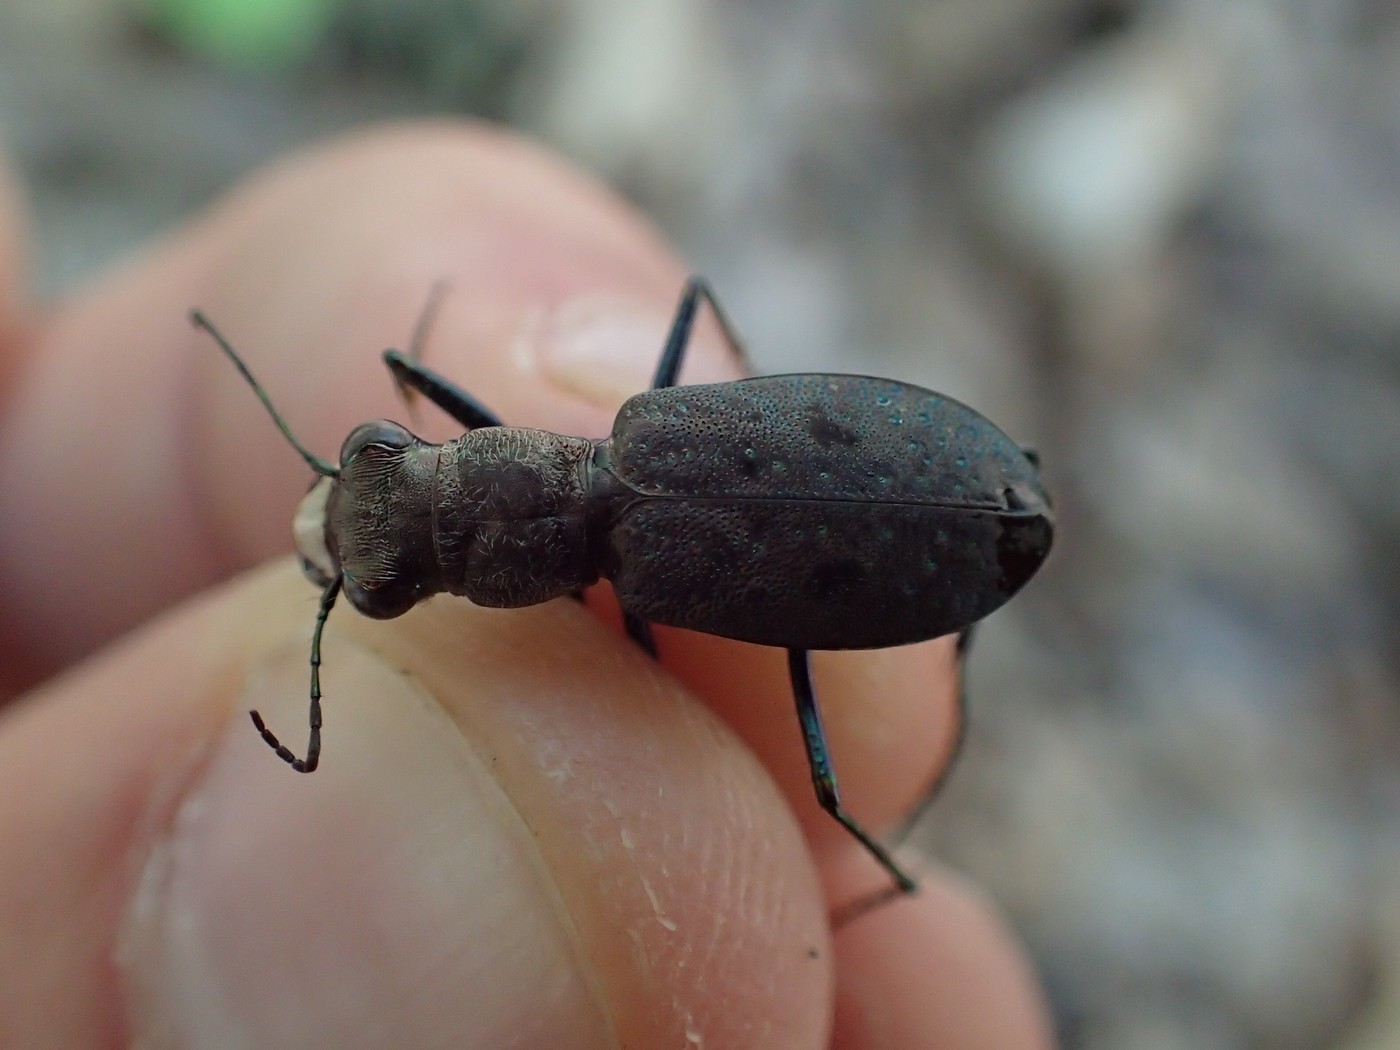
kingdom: Animalia
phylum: Arthropoda
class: Insecta
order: Coleoptera
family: Carabidae
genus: Cylindera
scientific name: Cylindera unipunctata
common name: One-spotted tiger beetle
